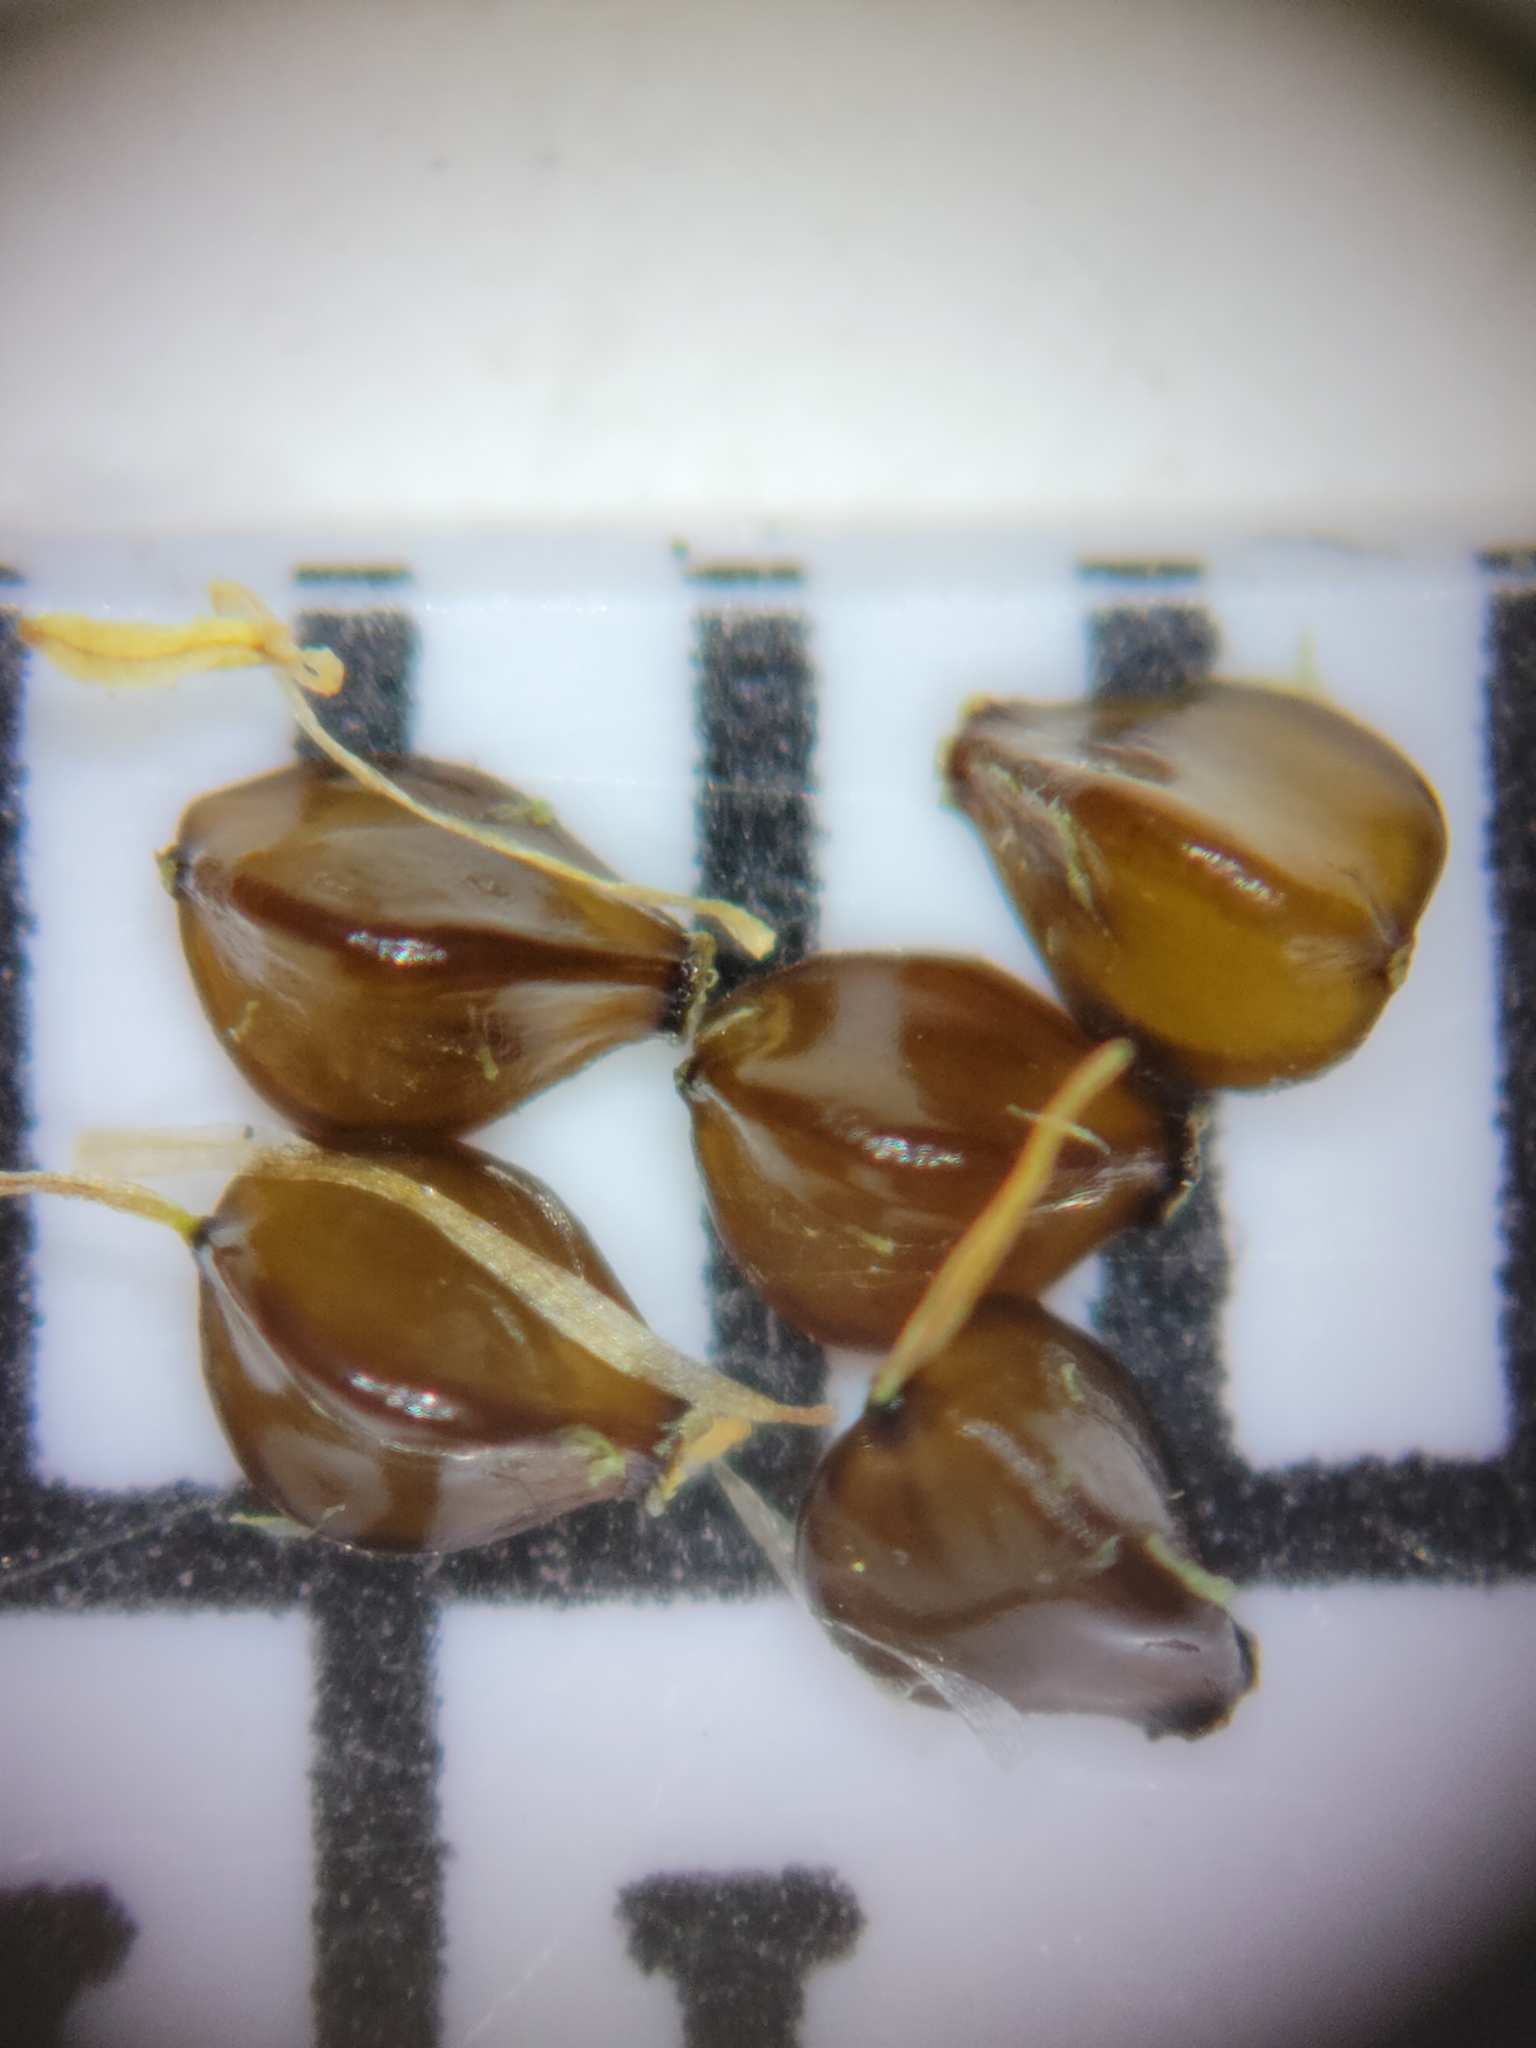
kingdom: Plantae
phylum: Tracheophyta
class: Liliopsida
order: Poales
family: Cyperaceae
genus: Cyperus
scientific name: Cyperus compressus
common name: Poorland flatsedge
